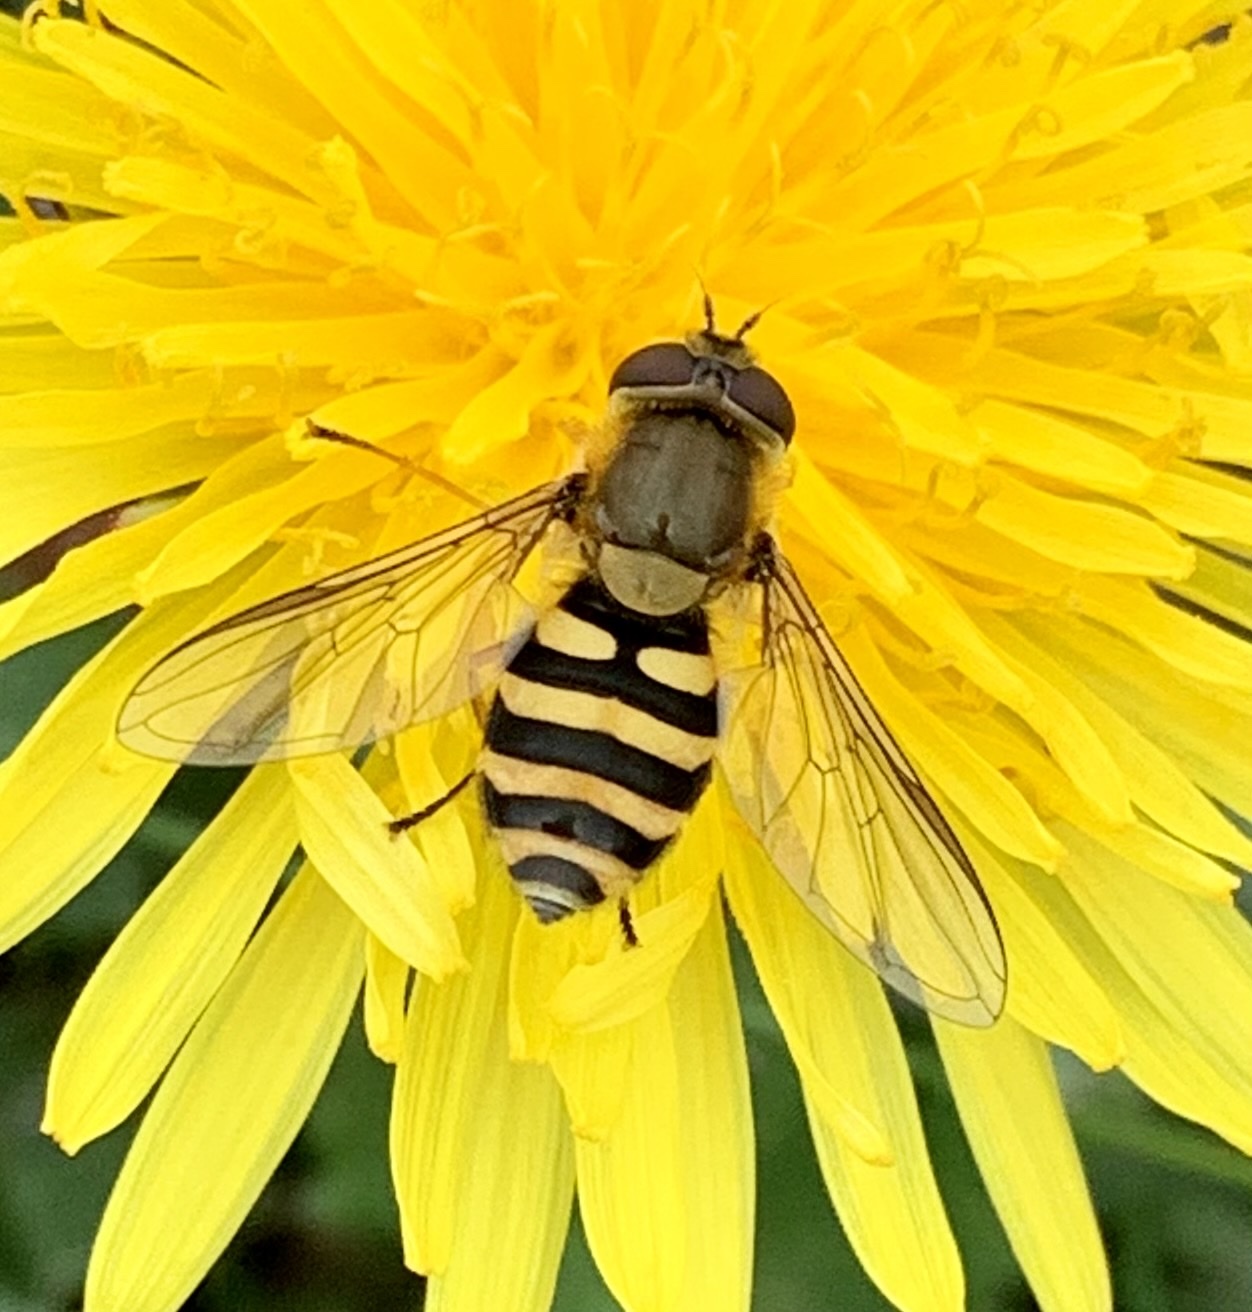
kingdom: Animalia
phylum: Arthropoda
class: Insecta
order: Diptera
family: Syrphidae
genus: Syrphus
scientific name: Syrphus
